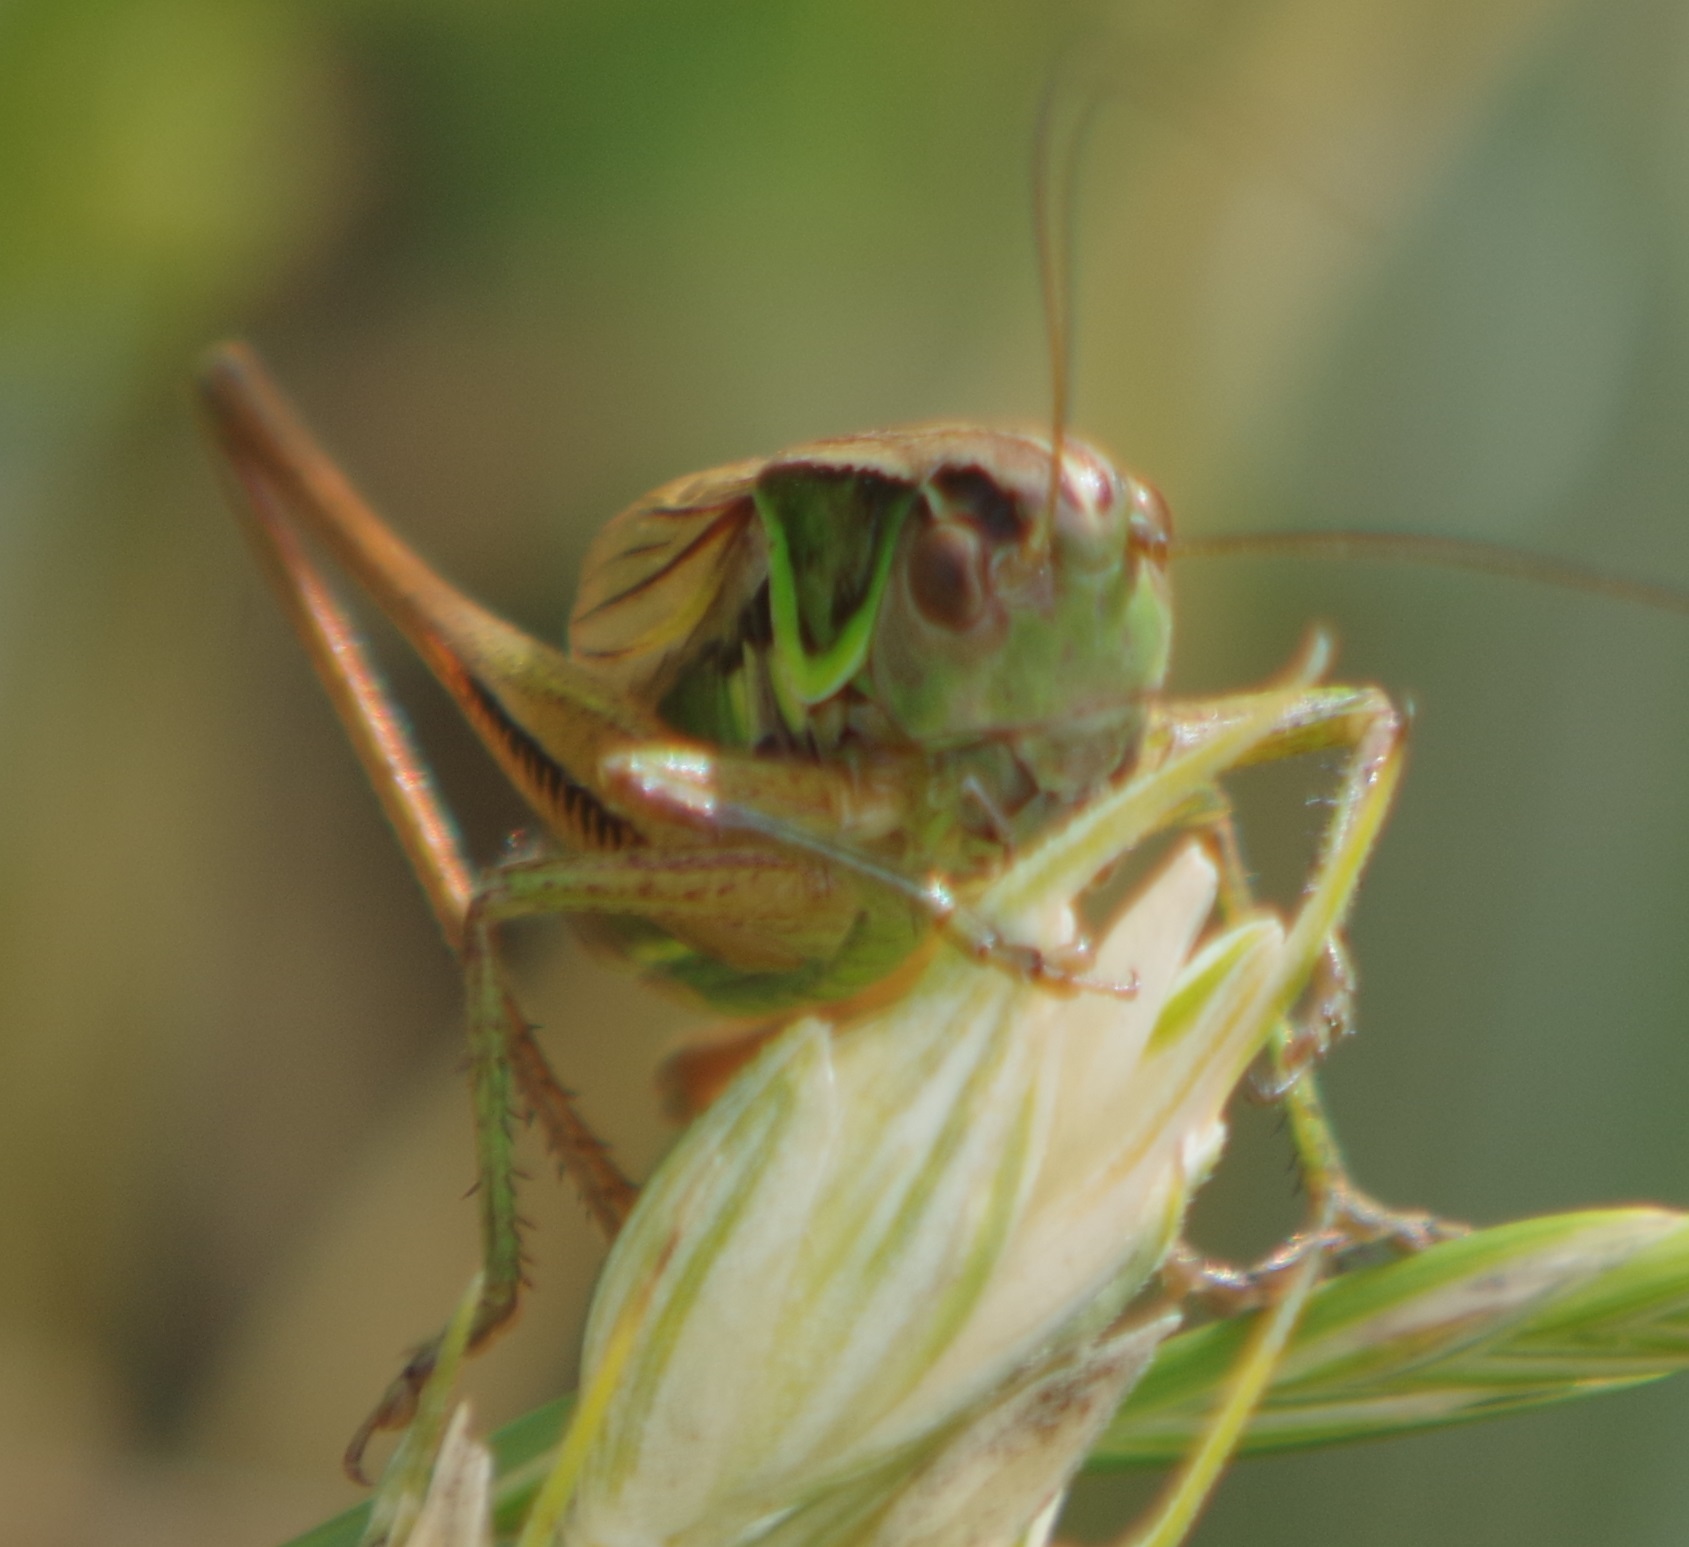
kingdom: Animalia
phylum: Arthropoda
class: Insecta
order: Orthoptera
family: Tettigoniidae
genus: Roeseliana
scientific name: Roeseliana roeselii
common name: Roesel's bush cricket
